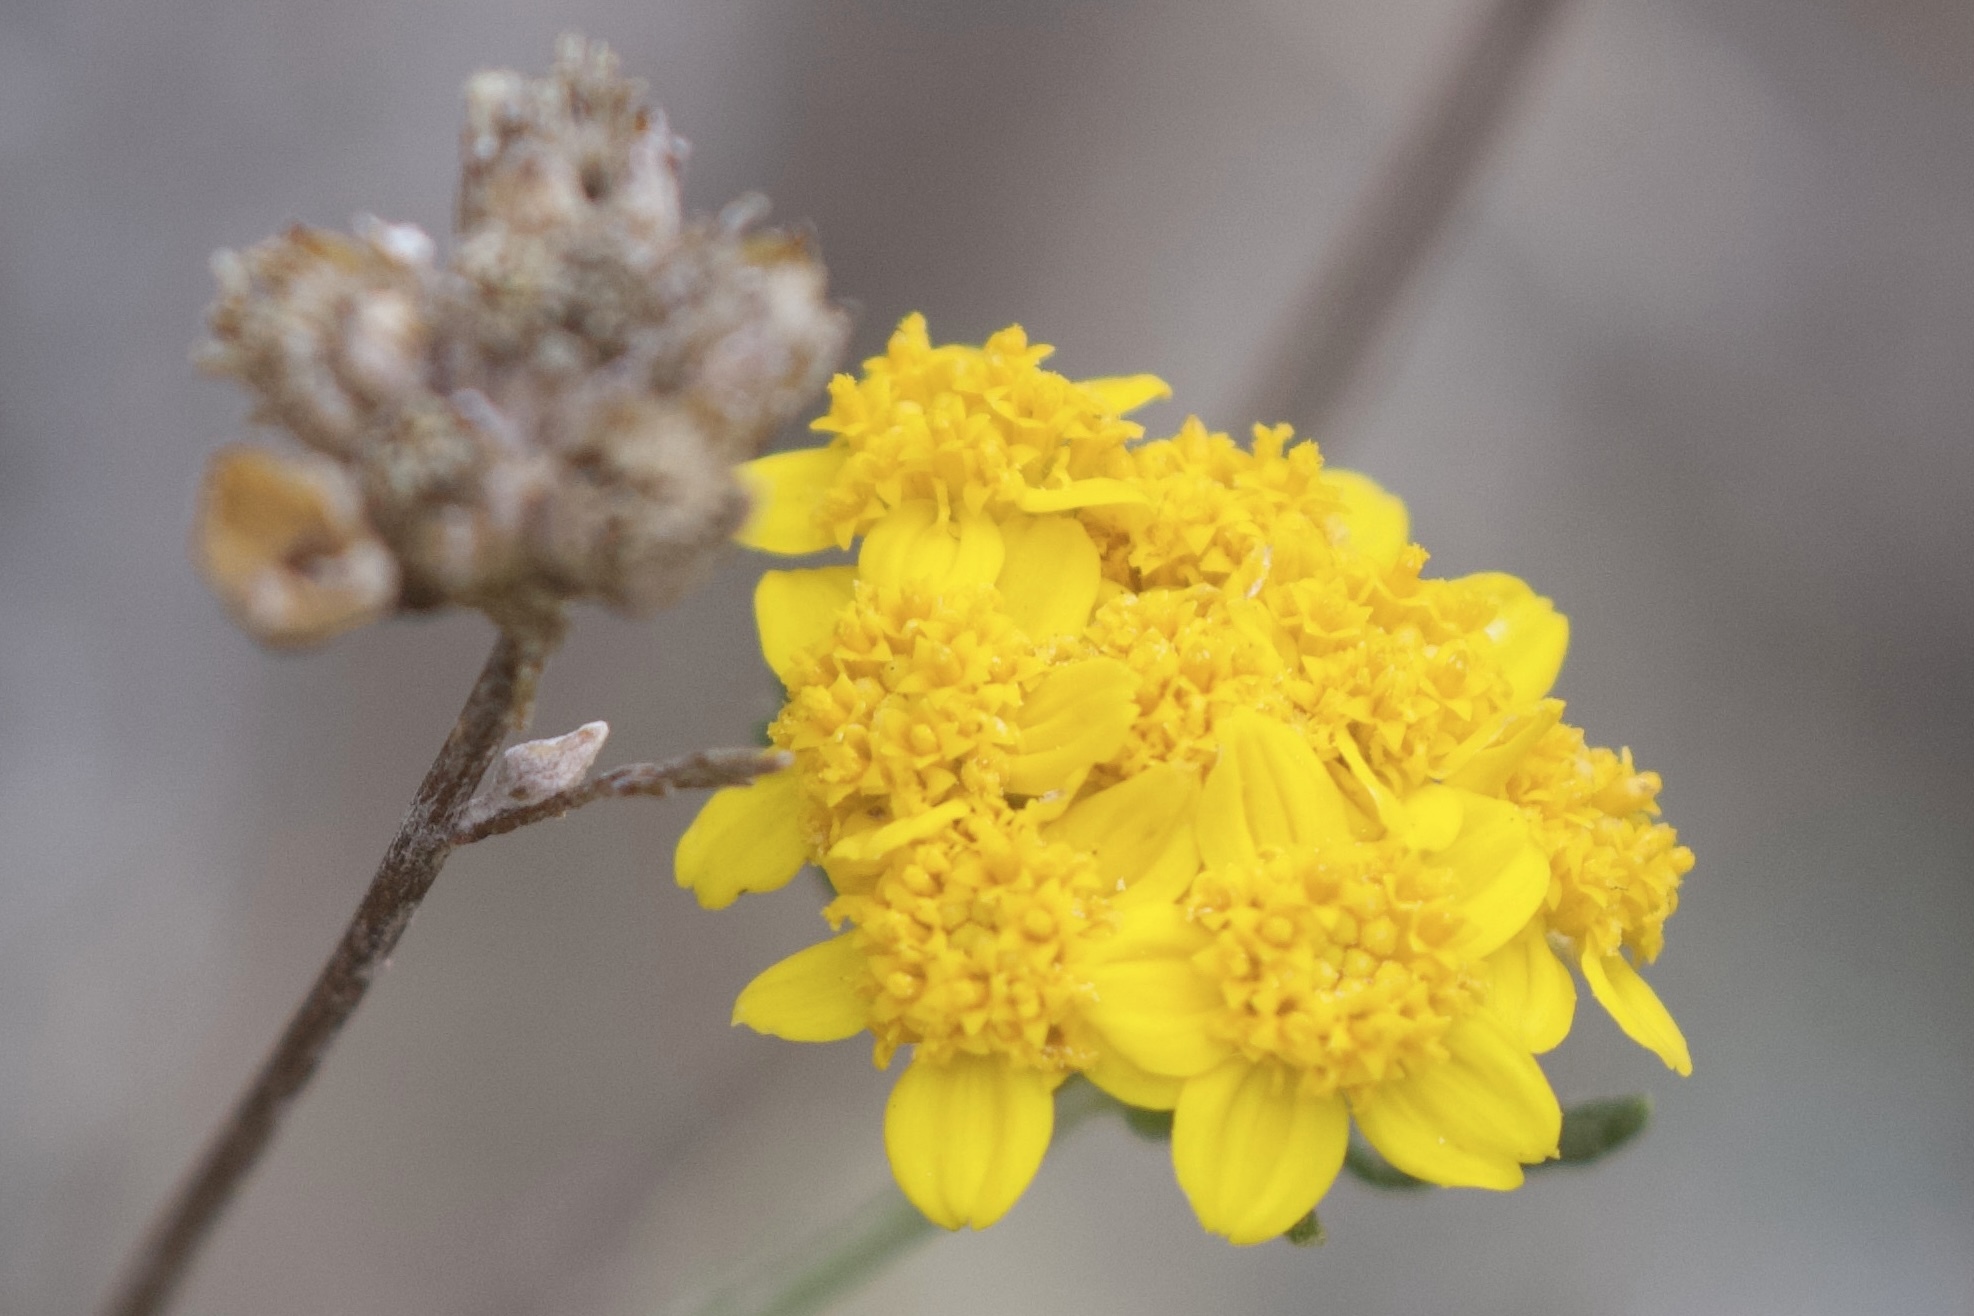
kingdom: Plantae
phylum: Tracheophyta
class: Magnoliopsida
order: Asterales
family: Asteraceae
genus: Eriophyllum
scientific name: Eriophyllum confertiflorum
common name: Golden-yarrow
